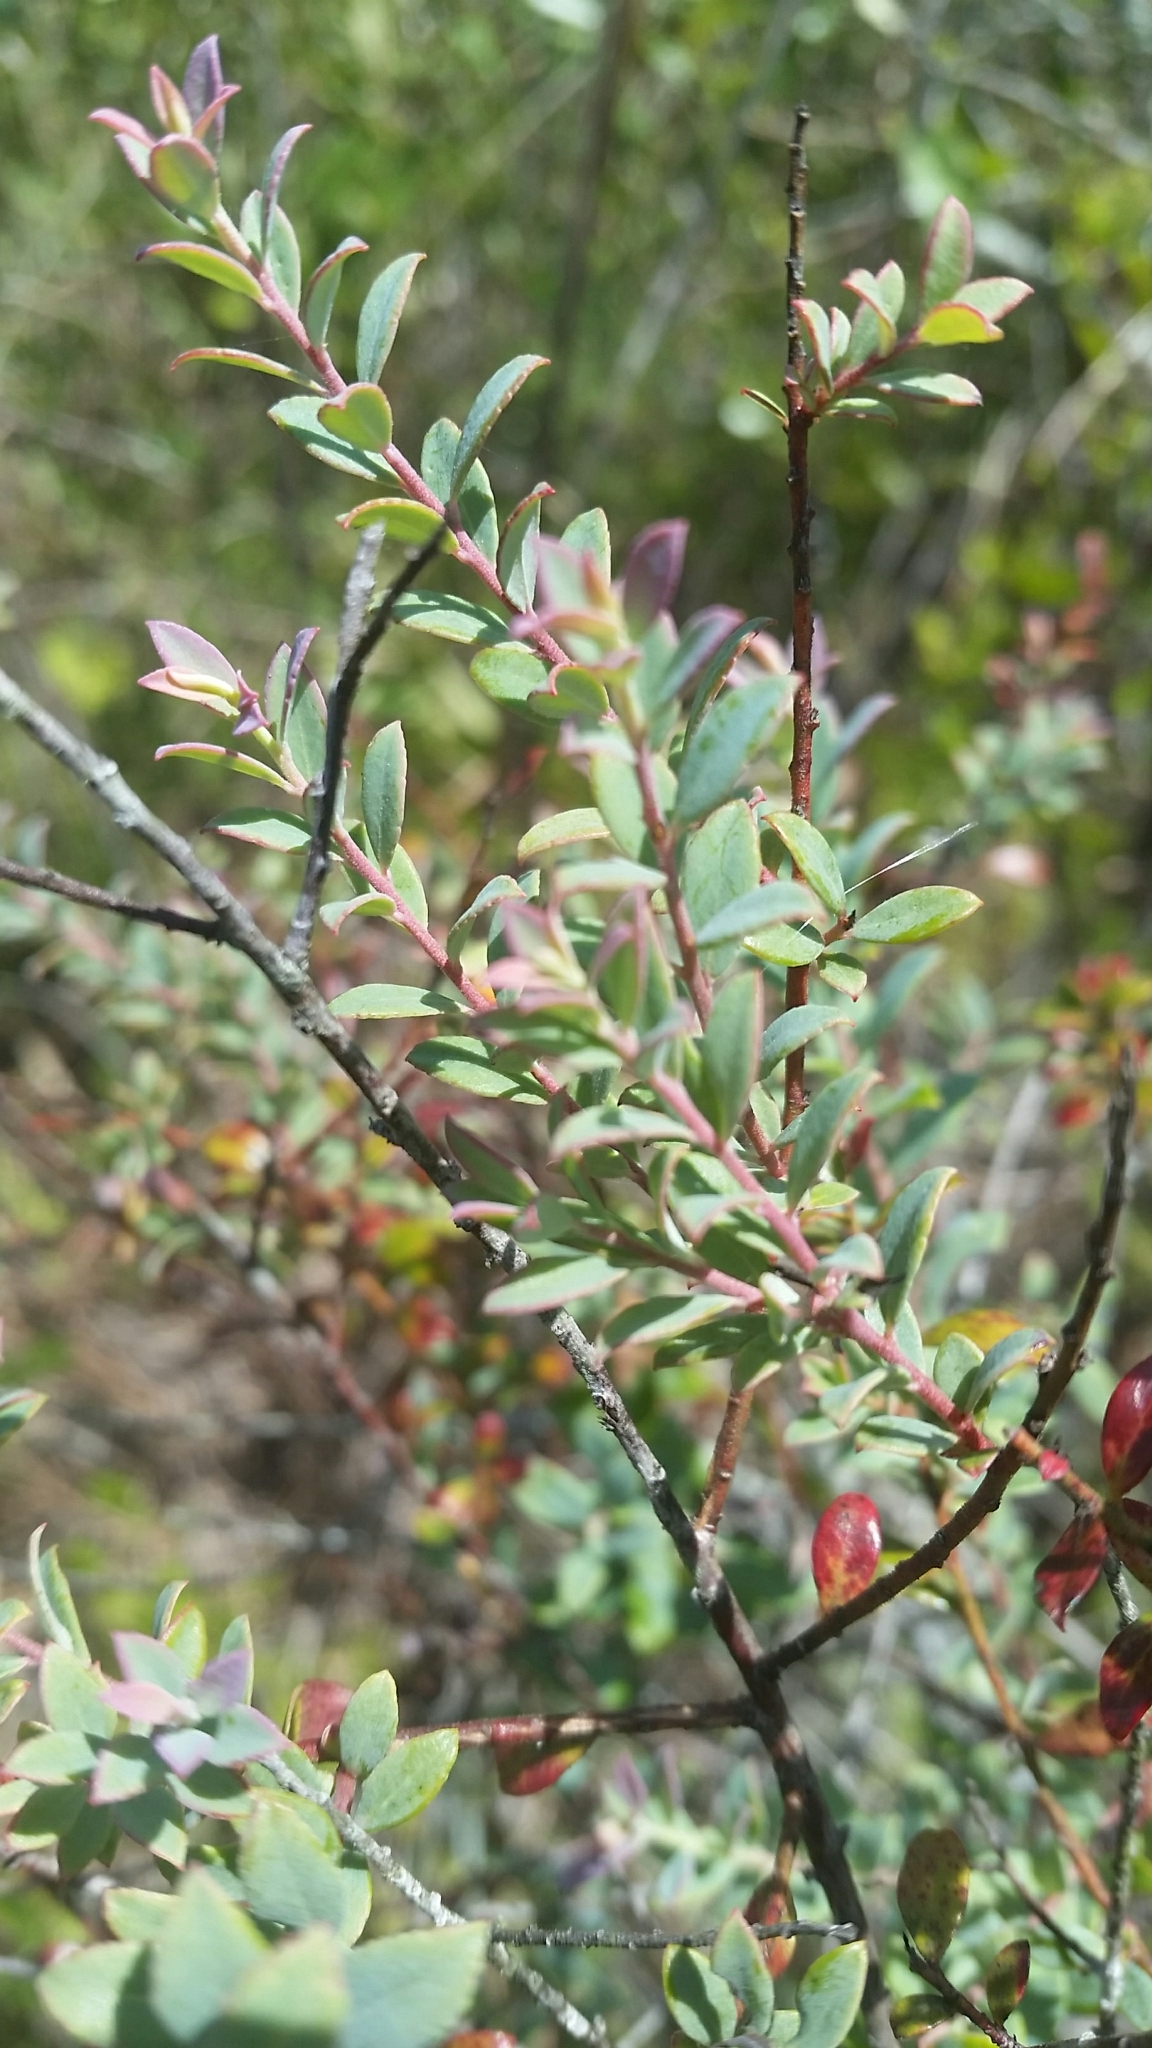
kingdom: Plantae
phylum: Tracheophyta
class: Magnoliopsida
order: Ericales
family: Ericaceae
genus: Vaccinium
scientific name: Vaccinium darrowii
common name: Darrow's blueberry
